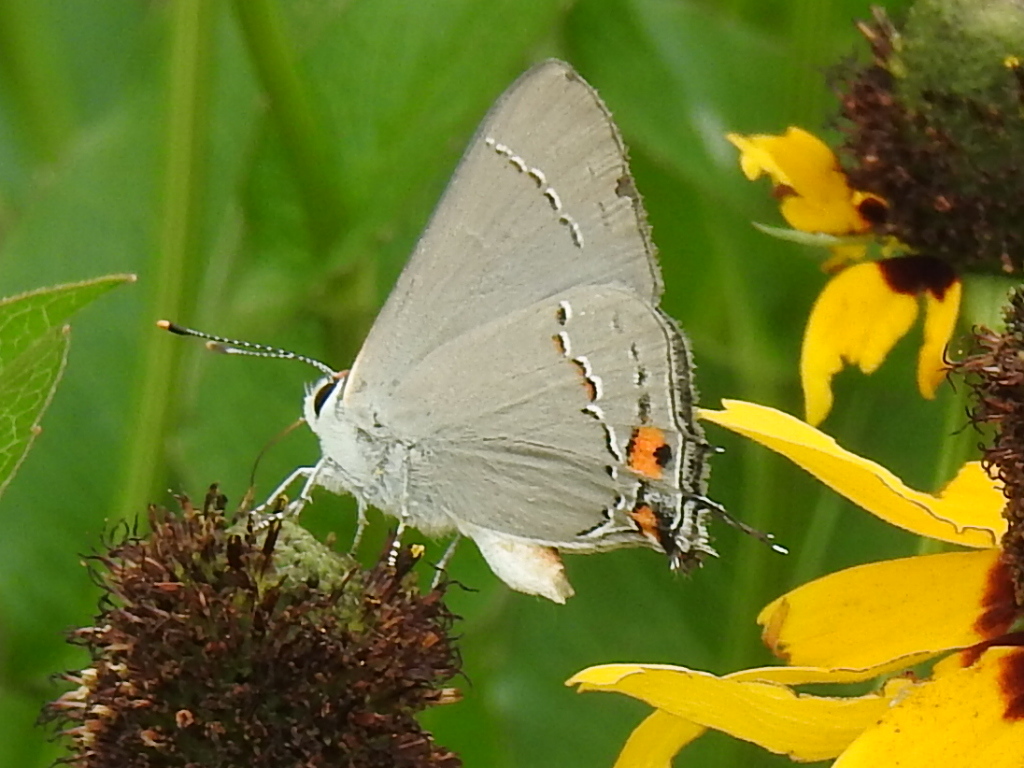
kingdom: Animalia
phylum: Arthropoda
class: Insecta
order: Lepidoptera
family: Lycaenidae
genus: Strymon
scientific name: Strymon melinus
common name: Gray hairstreak
